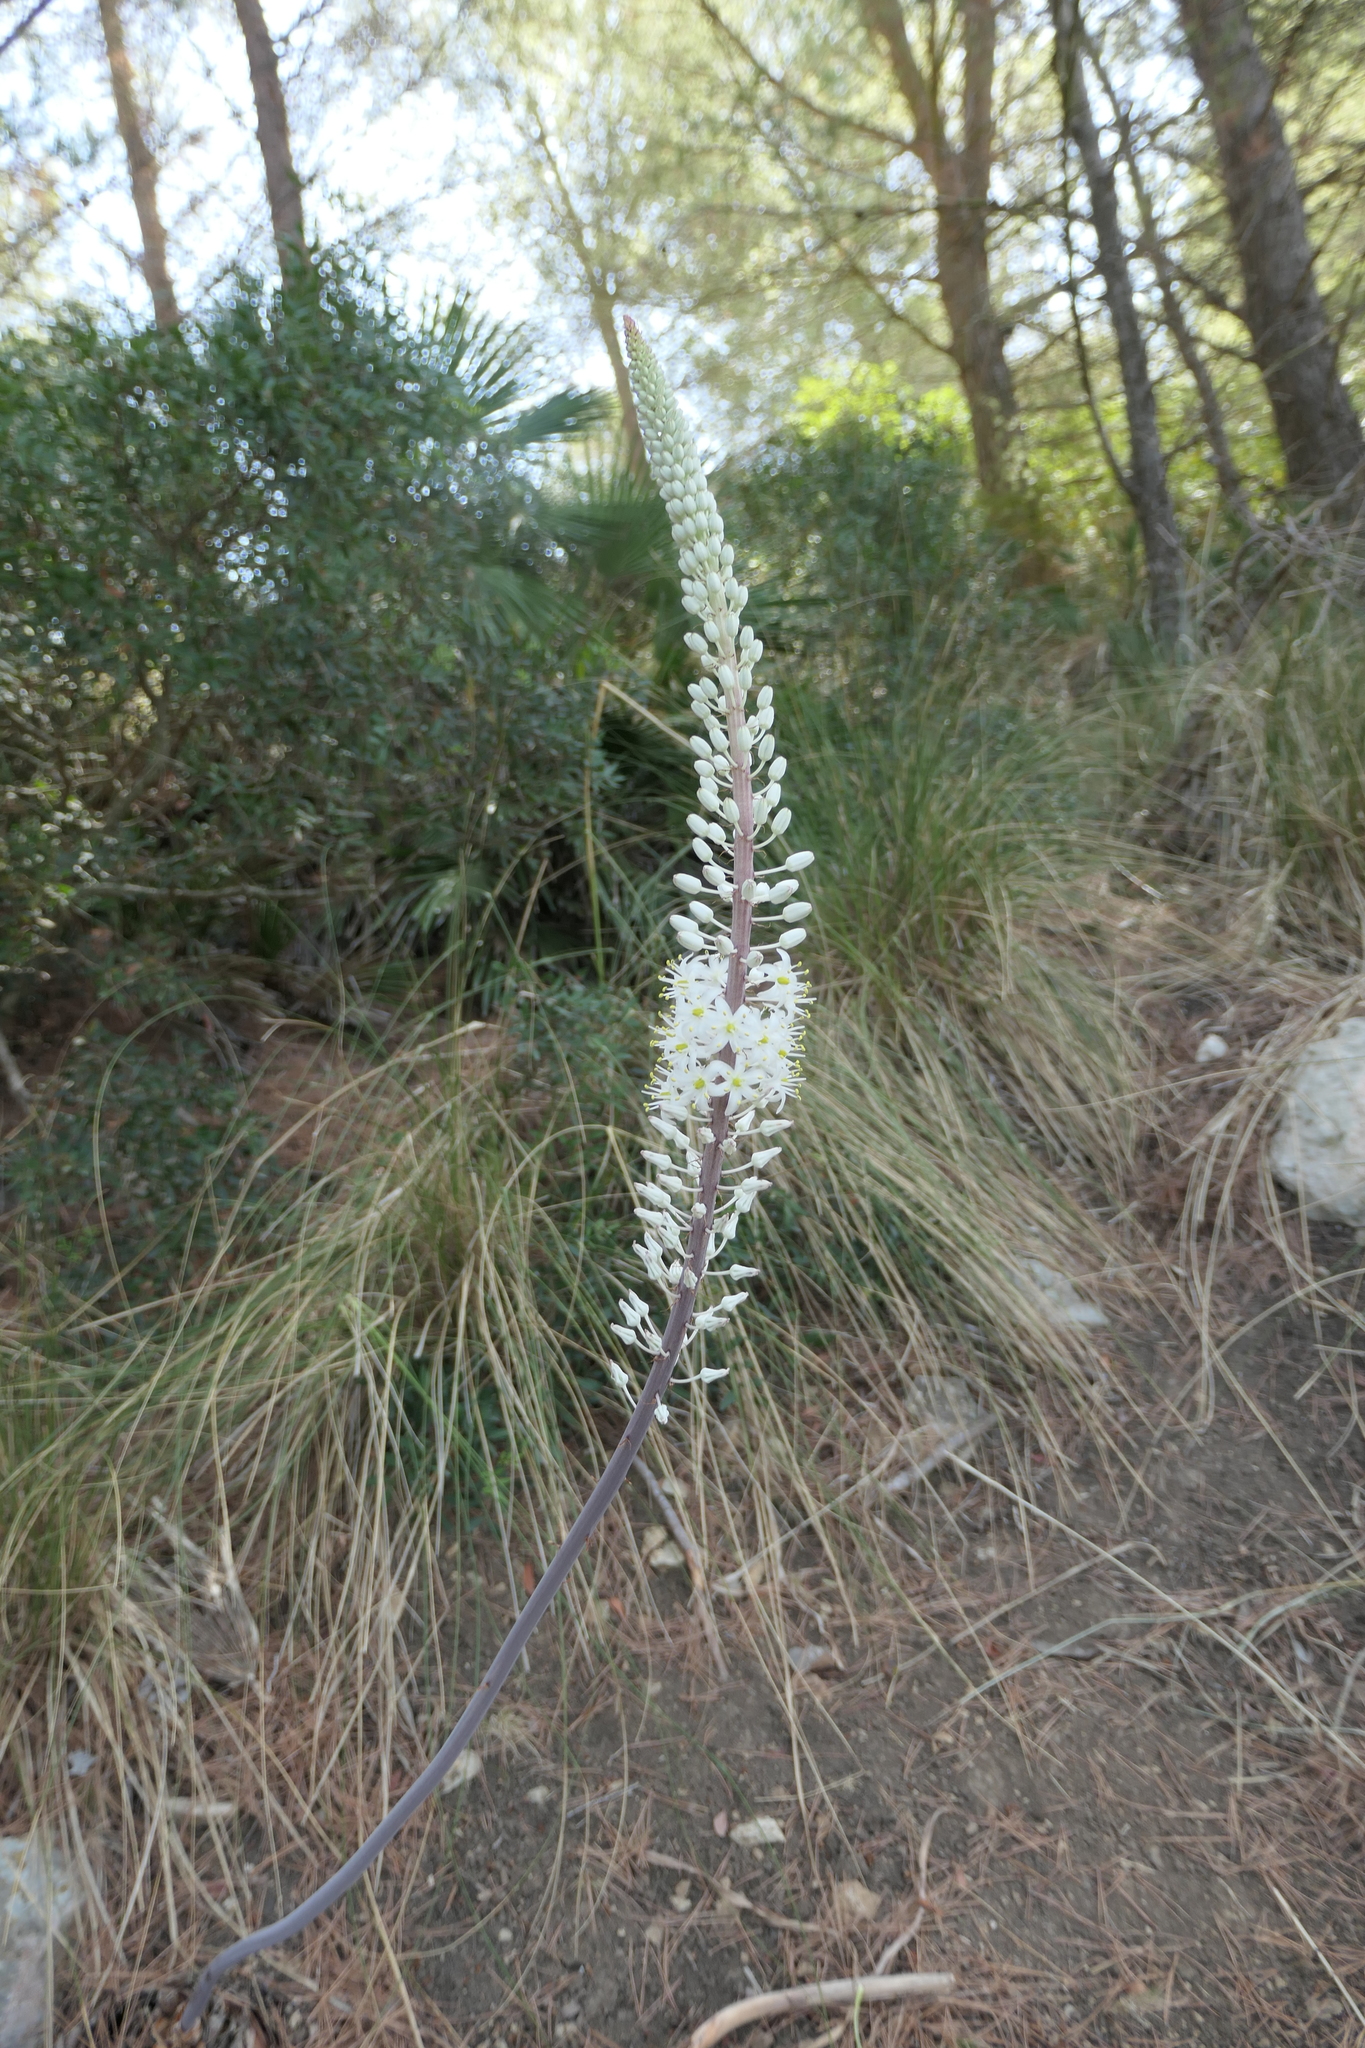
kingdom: Plantae
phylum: Tracheophyta
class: Liliopsida
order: Asparagales
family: Asparagaceae
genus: Drimia
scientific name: Drimia maritima
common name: Maritime squill
